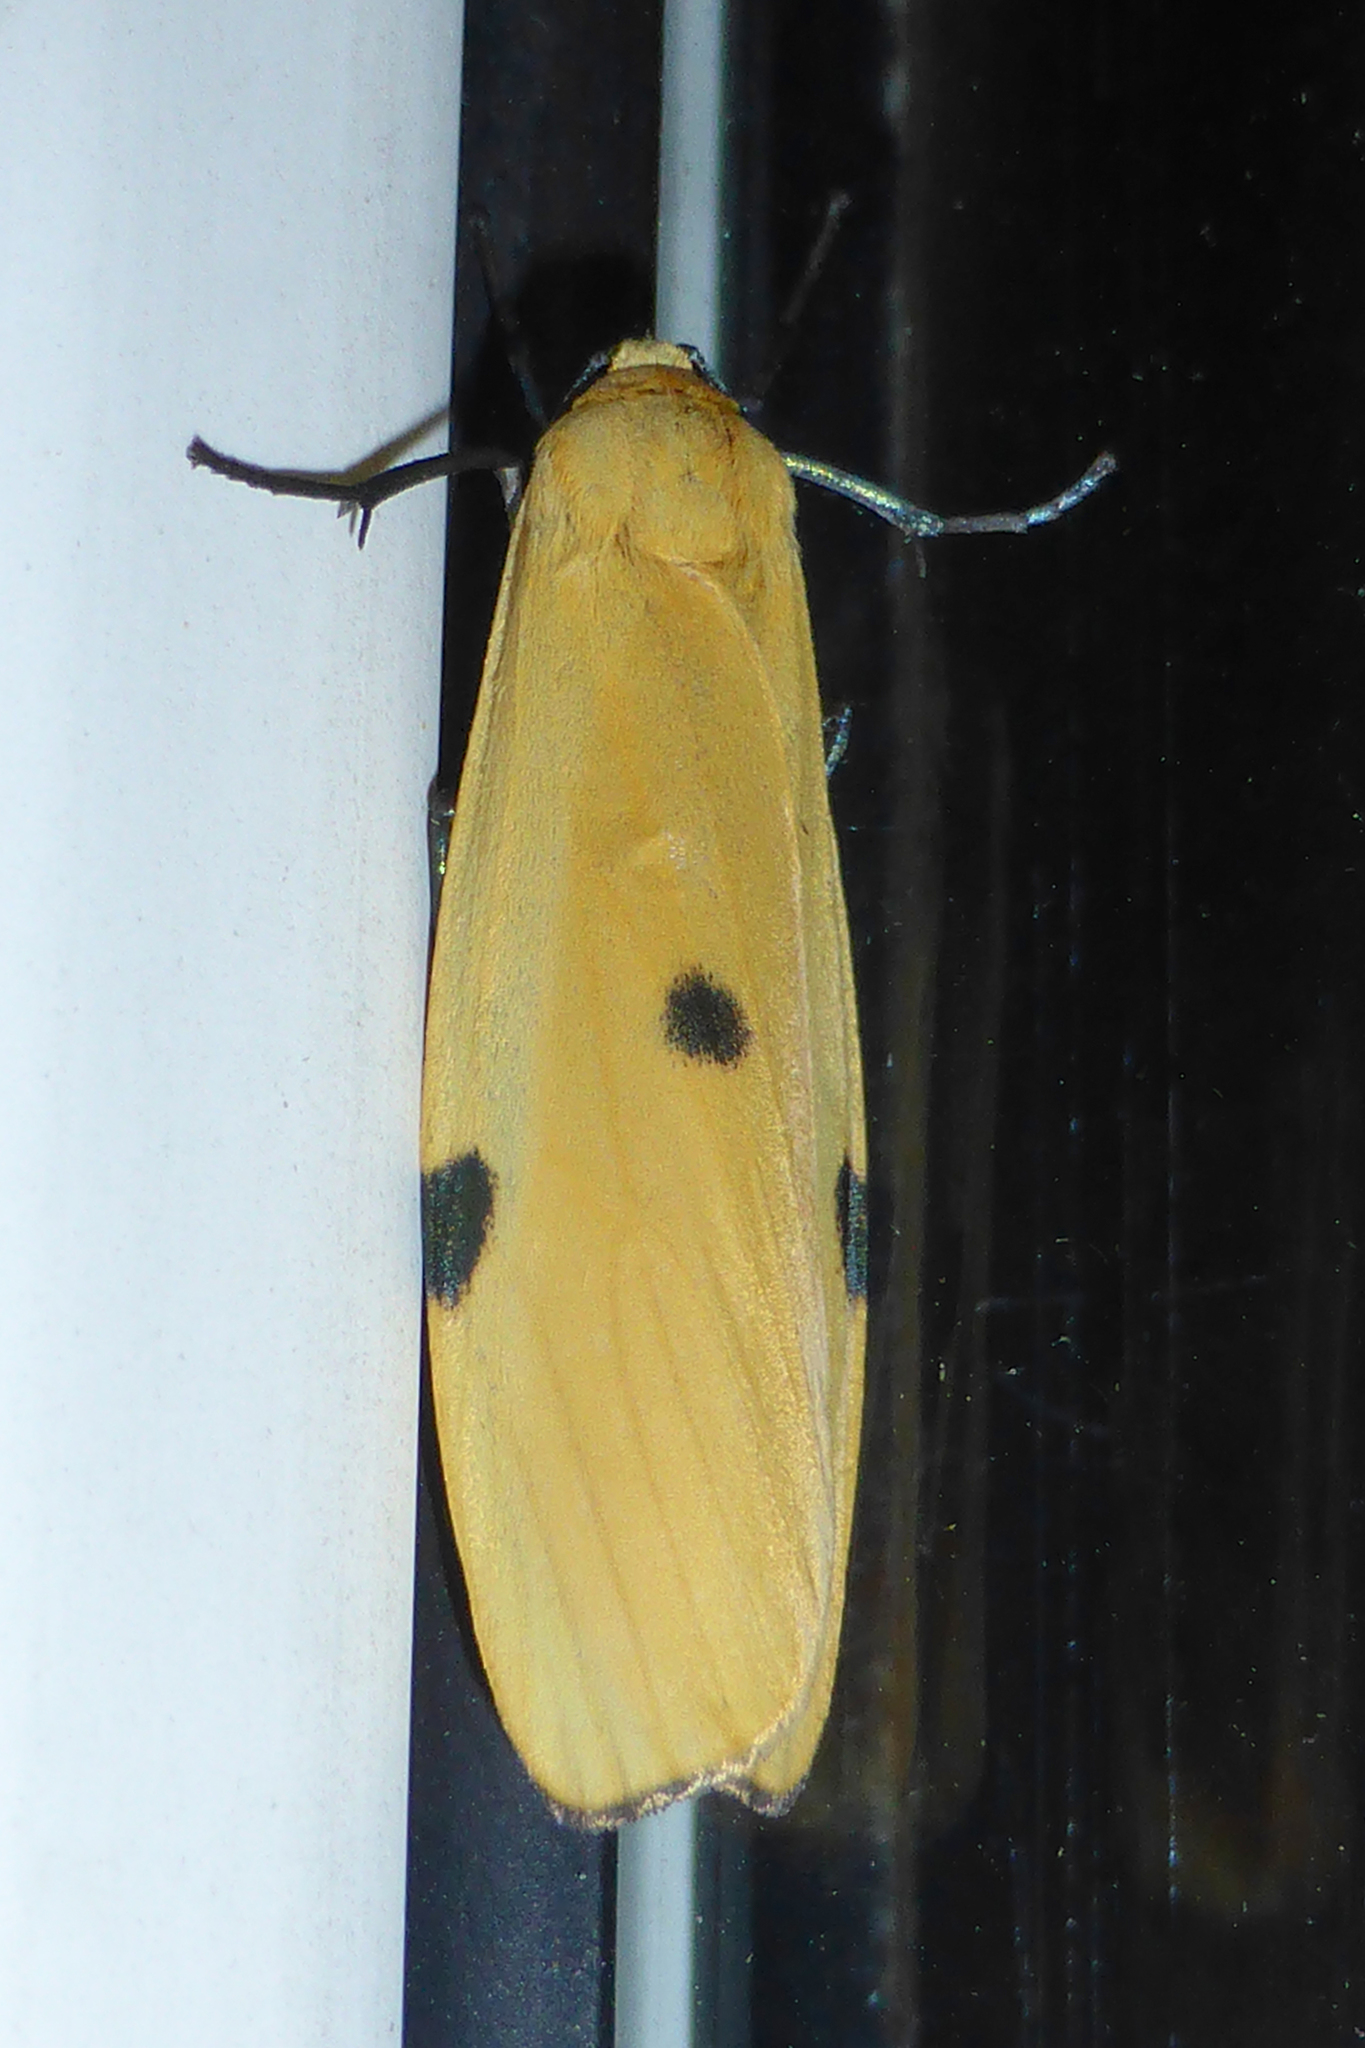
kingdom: Animalia
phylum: Arthropoda
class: Insecta
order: Lepidoptera
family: Erebidae
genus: Lithosia
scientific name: Lithosia quadra
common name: Four-spotted footman
